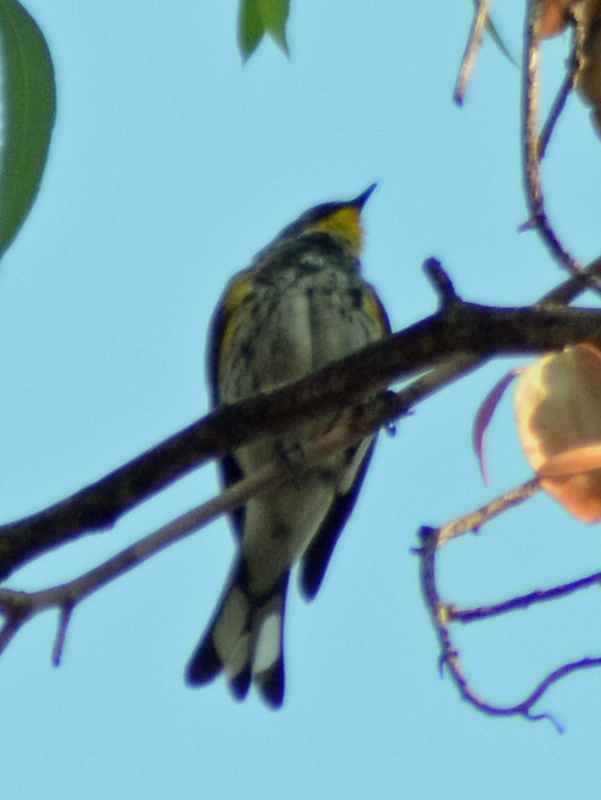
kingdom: Animalia
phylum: Chordata
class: Aves
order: Passeriformes
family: Parulidae
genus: Setophaga
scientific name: Setophaga coronata
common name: Myrtle warbler
